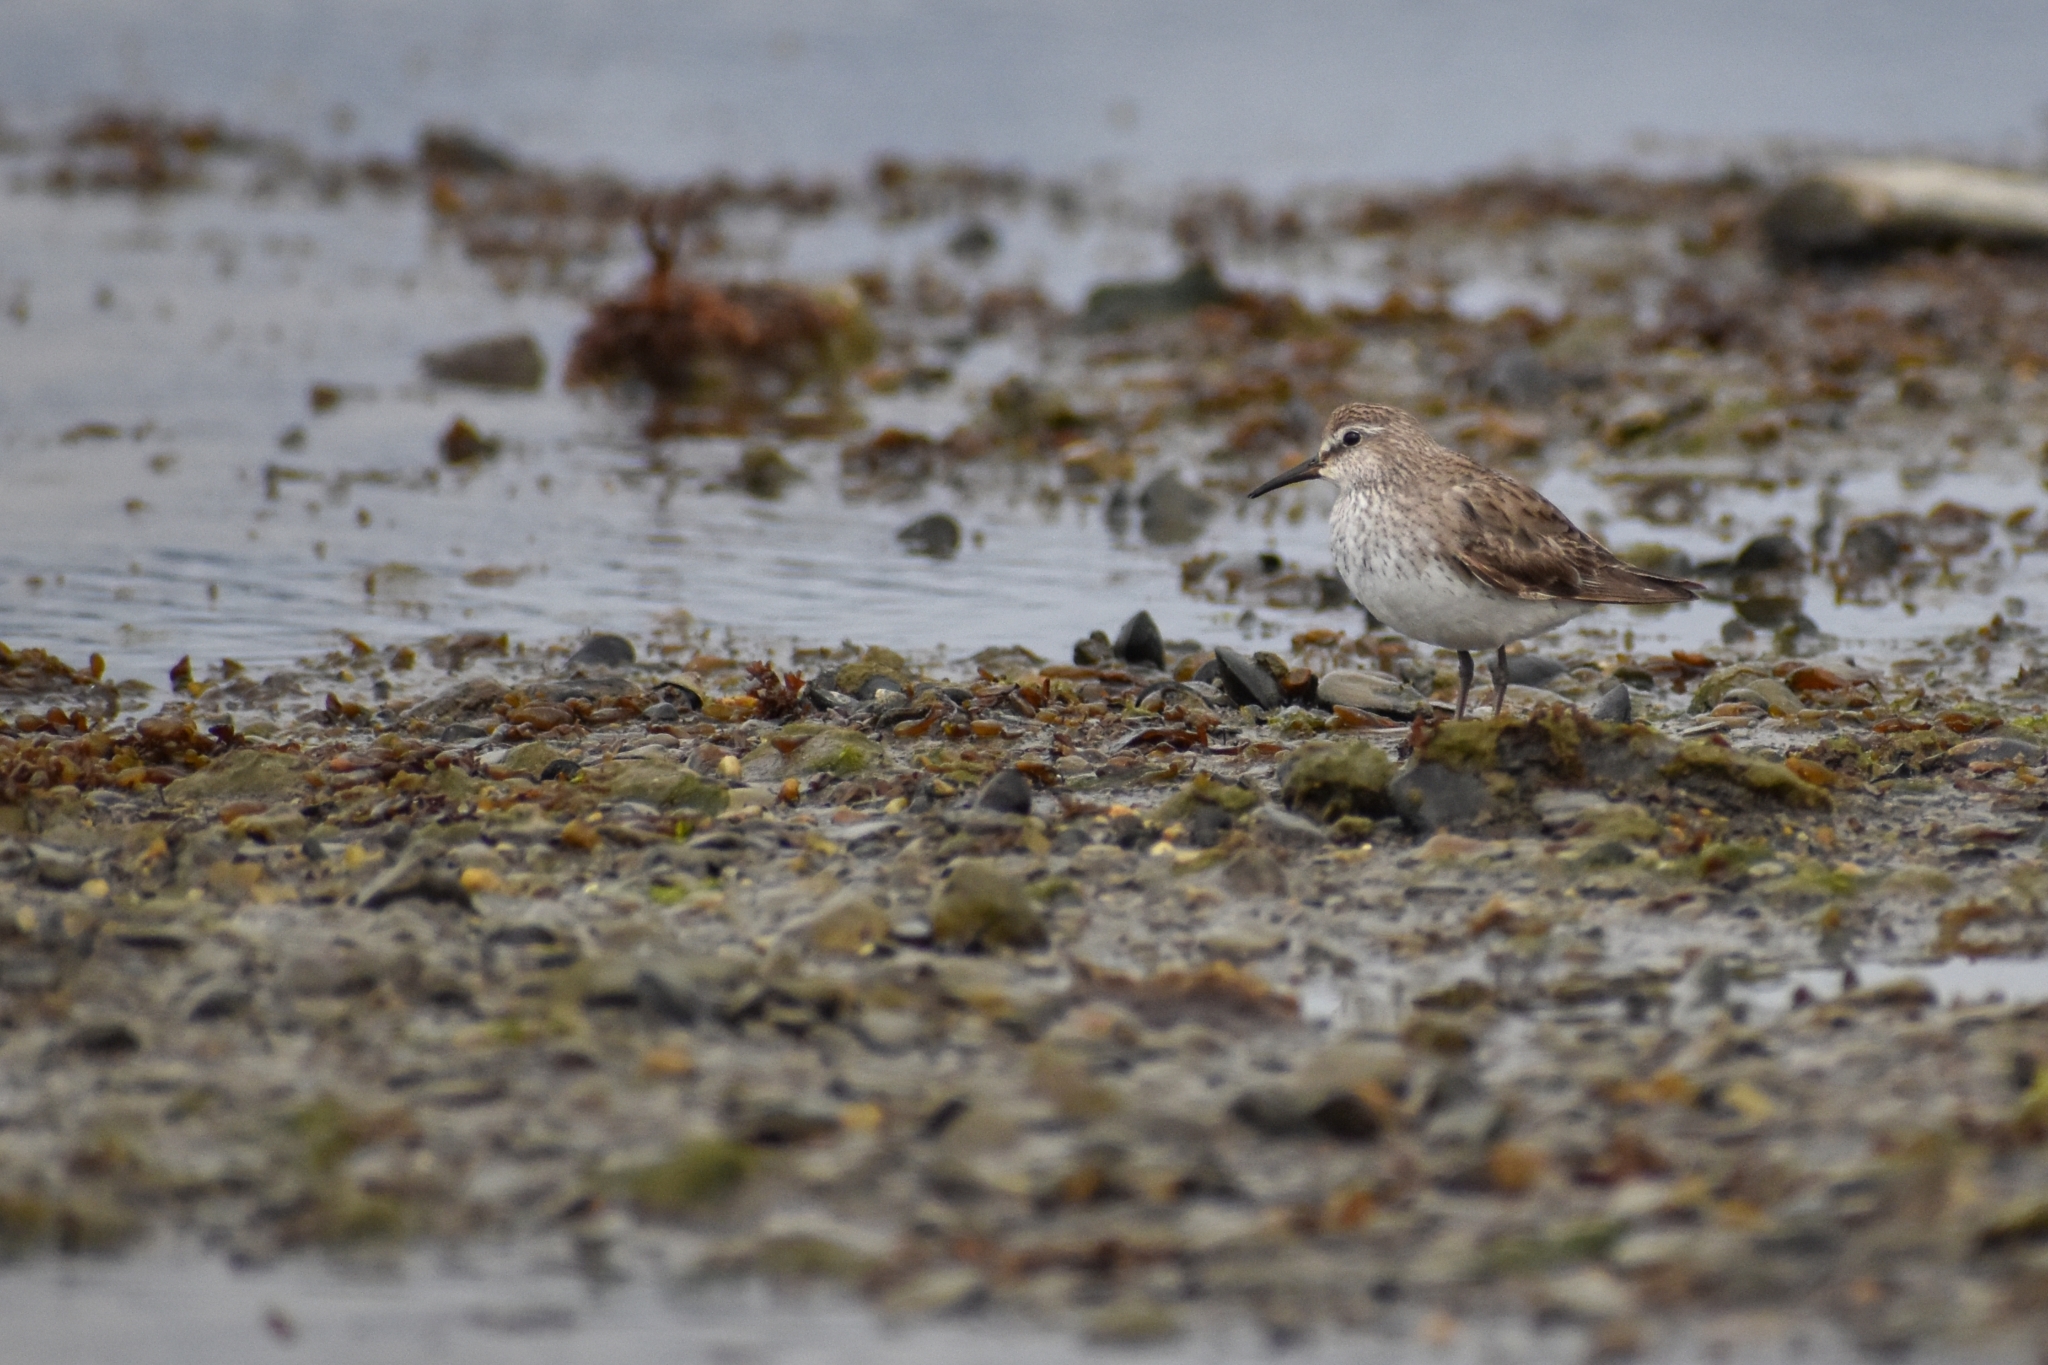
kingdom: Animalia
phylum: Chordata
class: Aves
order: Charadriiformes
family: Scolopacidae
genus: Calidris
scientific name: Calidris fuscicollis
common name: White-rumped sandpiper
